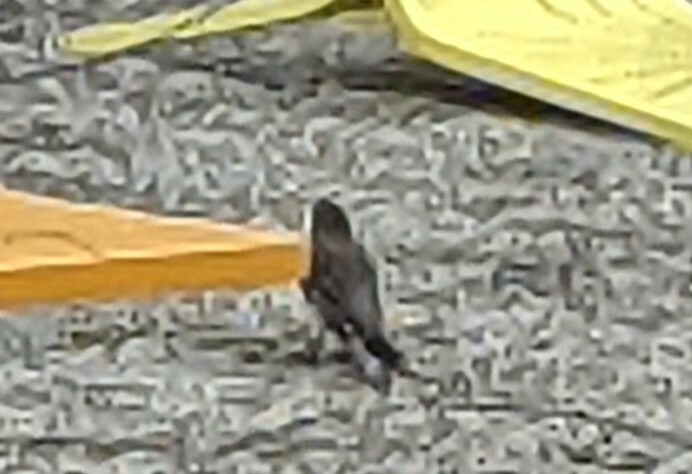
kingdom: Animalia
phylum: Chordata
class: Aves
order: Passeriformes
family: Turdidae
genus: Turdus
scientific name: Turdus migratorius
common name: American robin
